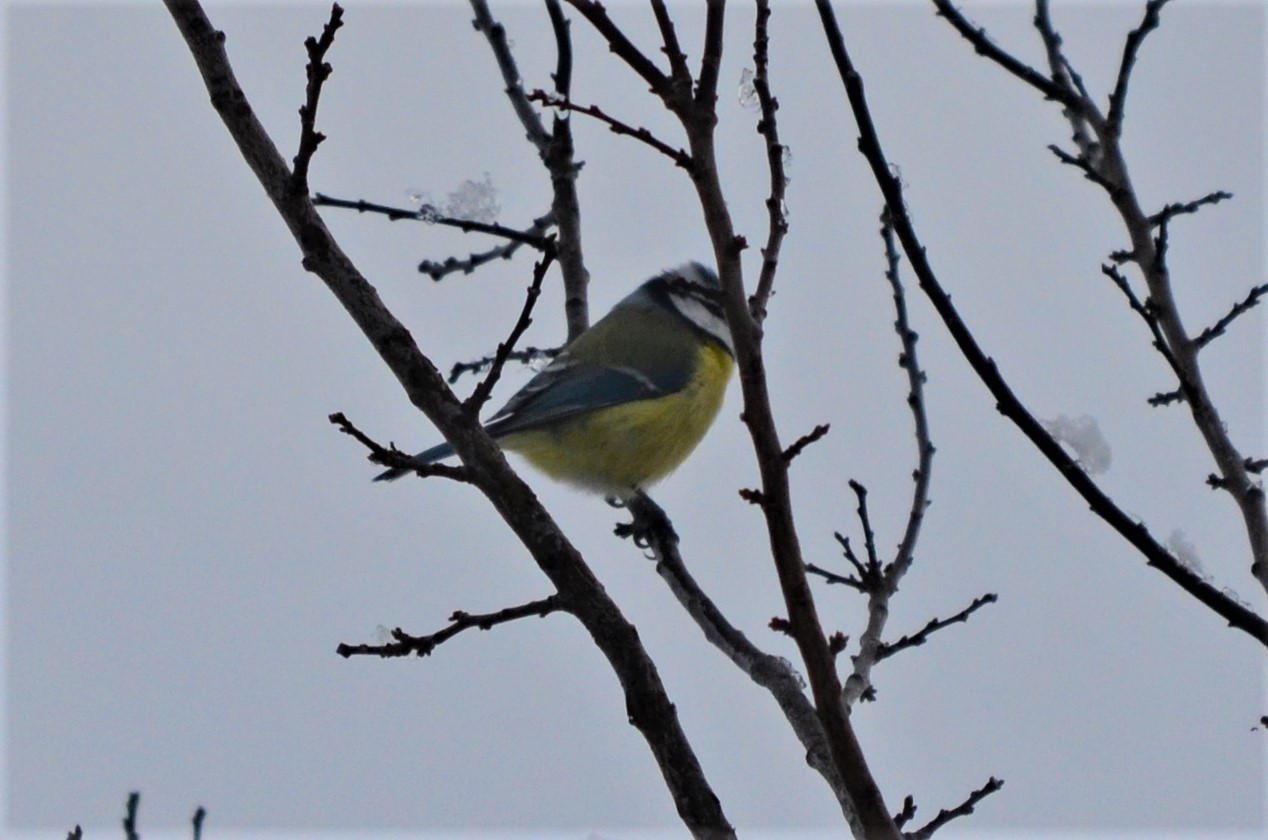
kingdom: Animalia
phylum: Chordata
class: Aves
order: Passeriformes
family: Paridae
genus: Cyanistes
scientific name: Cyanistes caeruleus
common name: Eurasian blue tit
